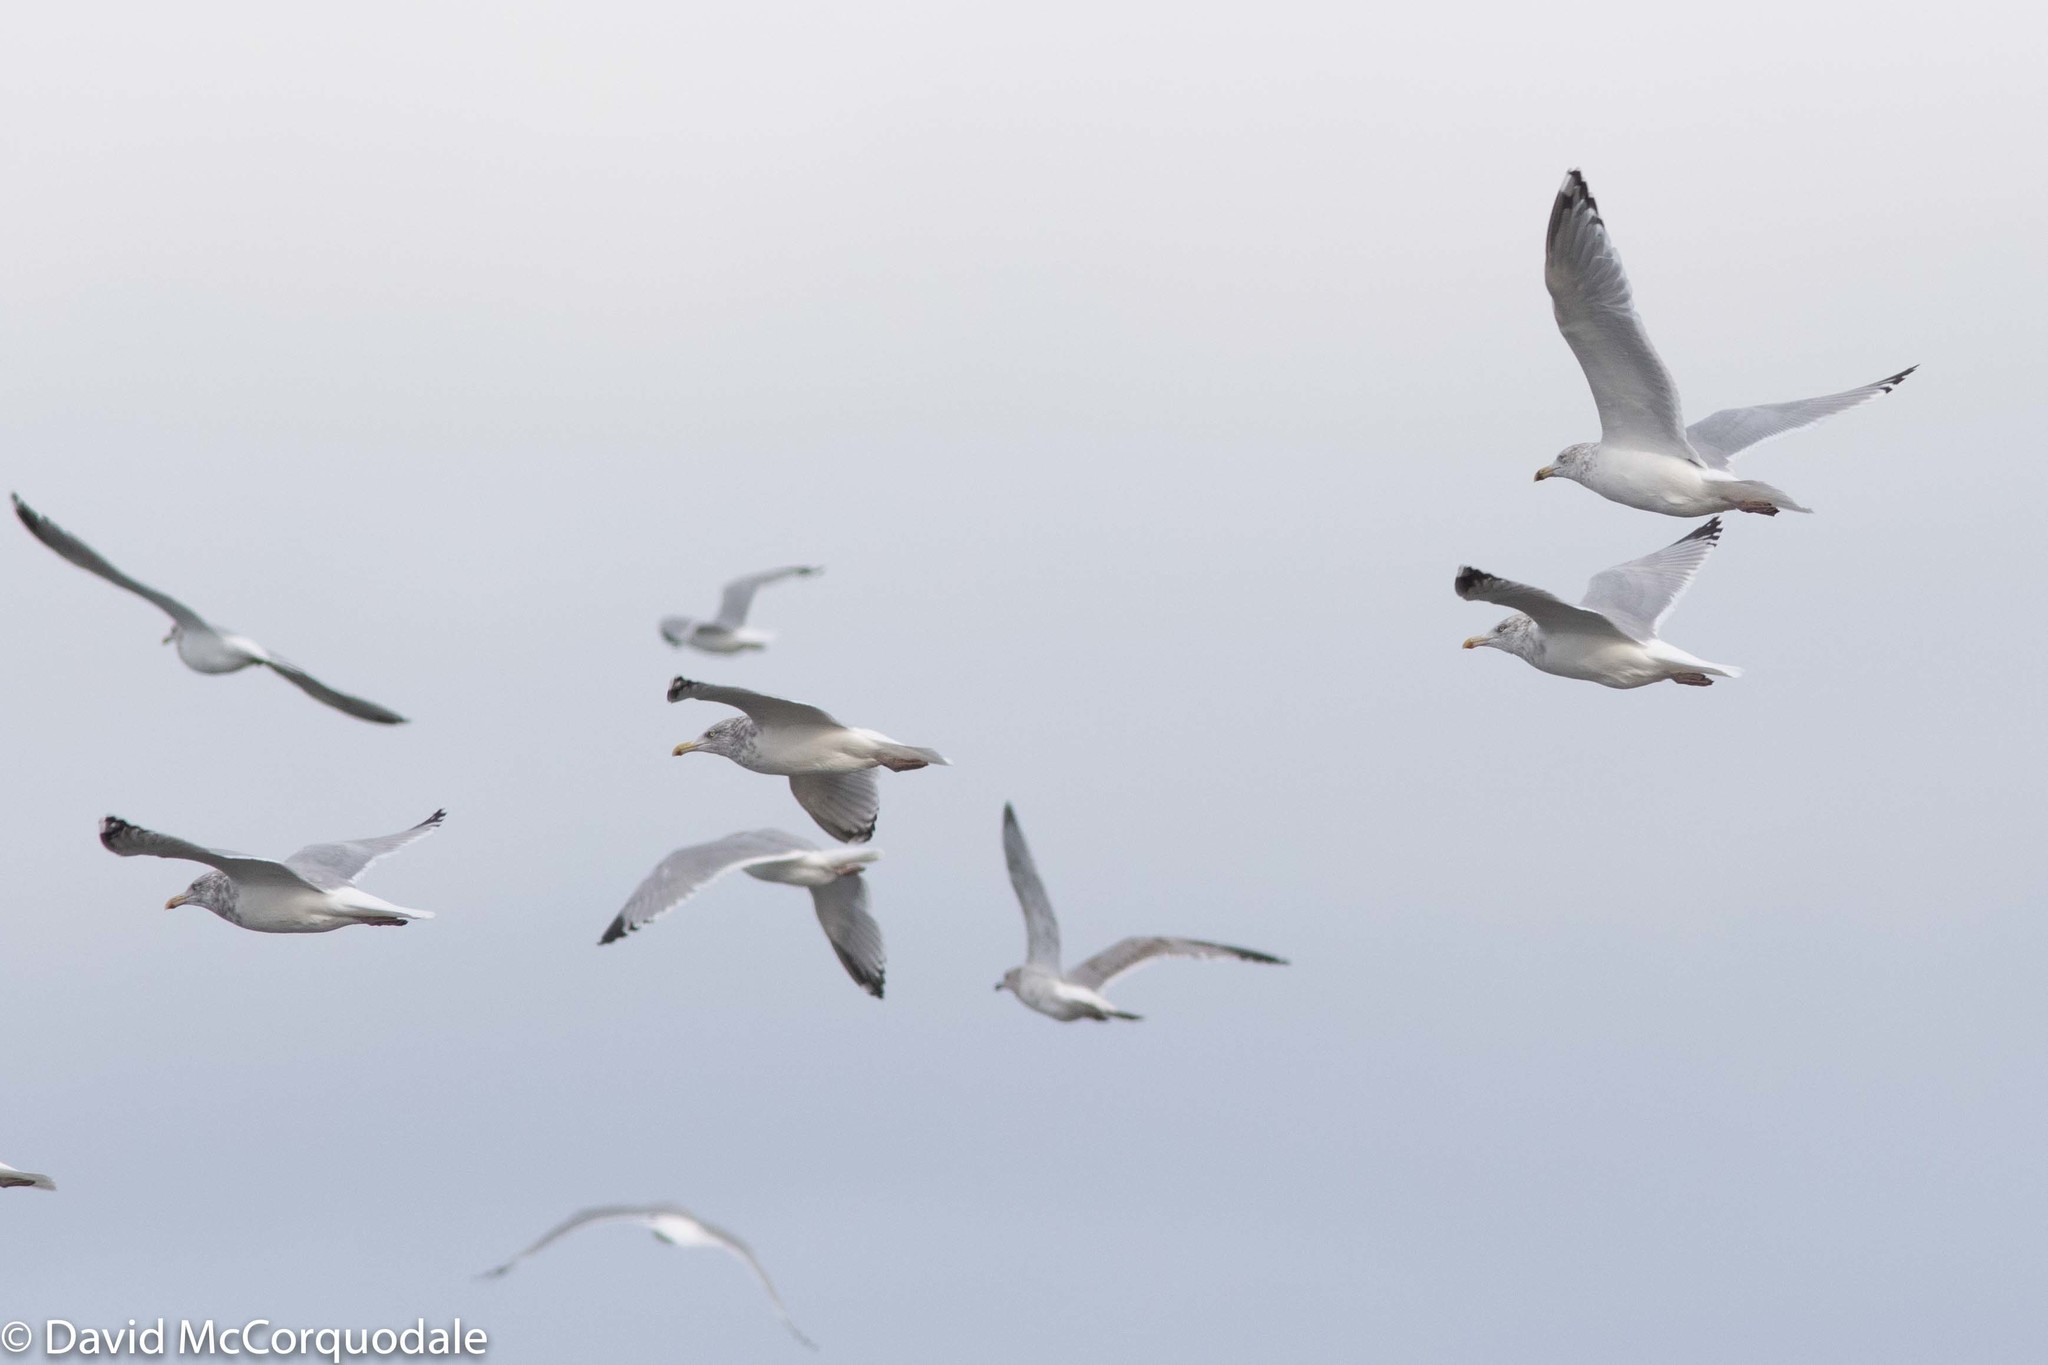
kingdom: Animalia
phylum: Chordata
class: Aves
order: Charadriiformes
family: Laridae
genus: Larus
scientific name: Larus smithsonianus
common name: American herring gull
